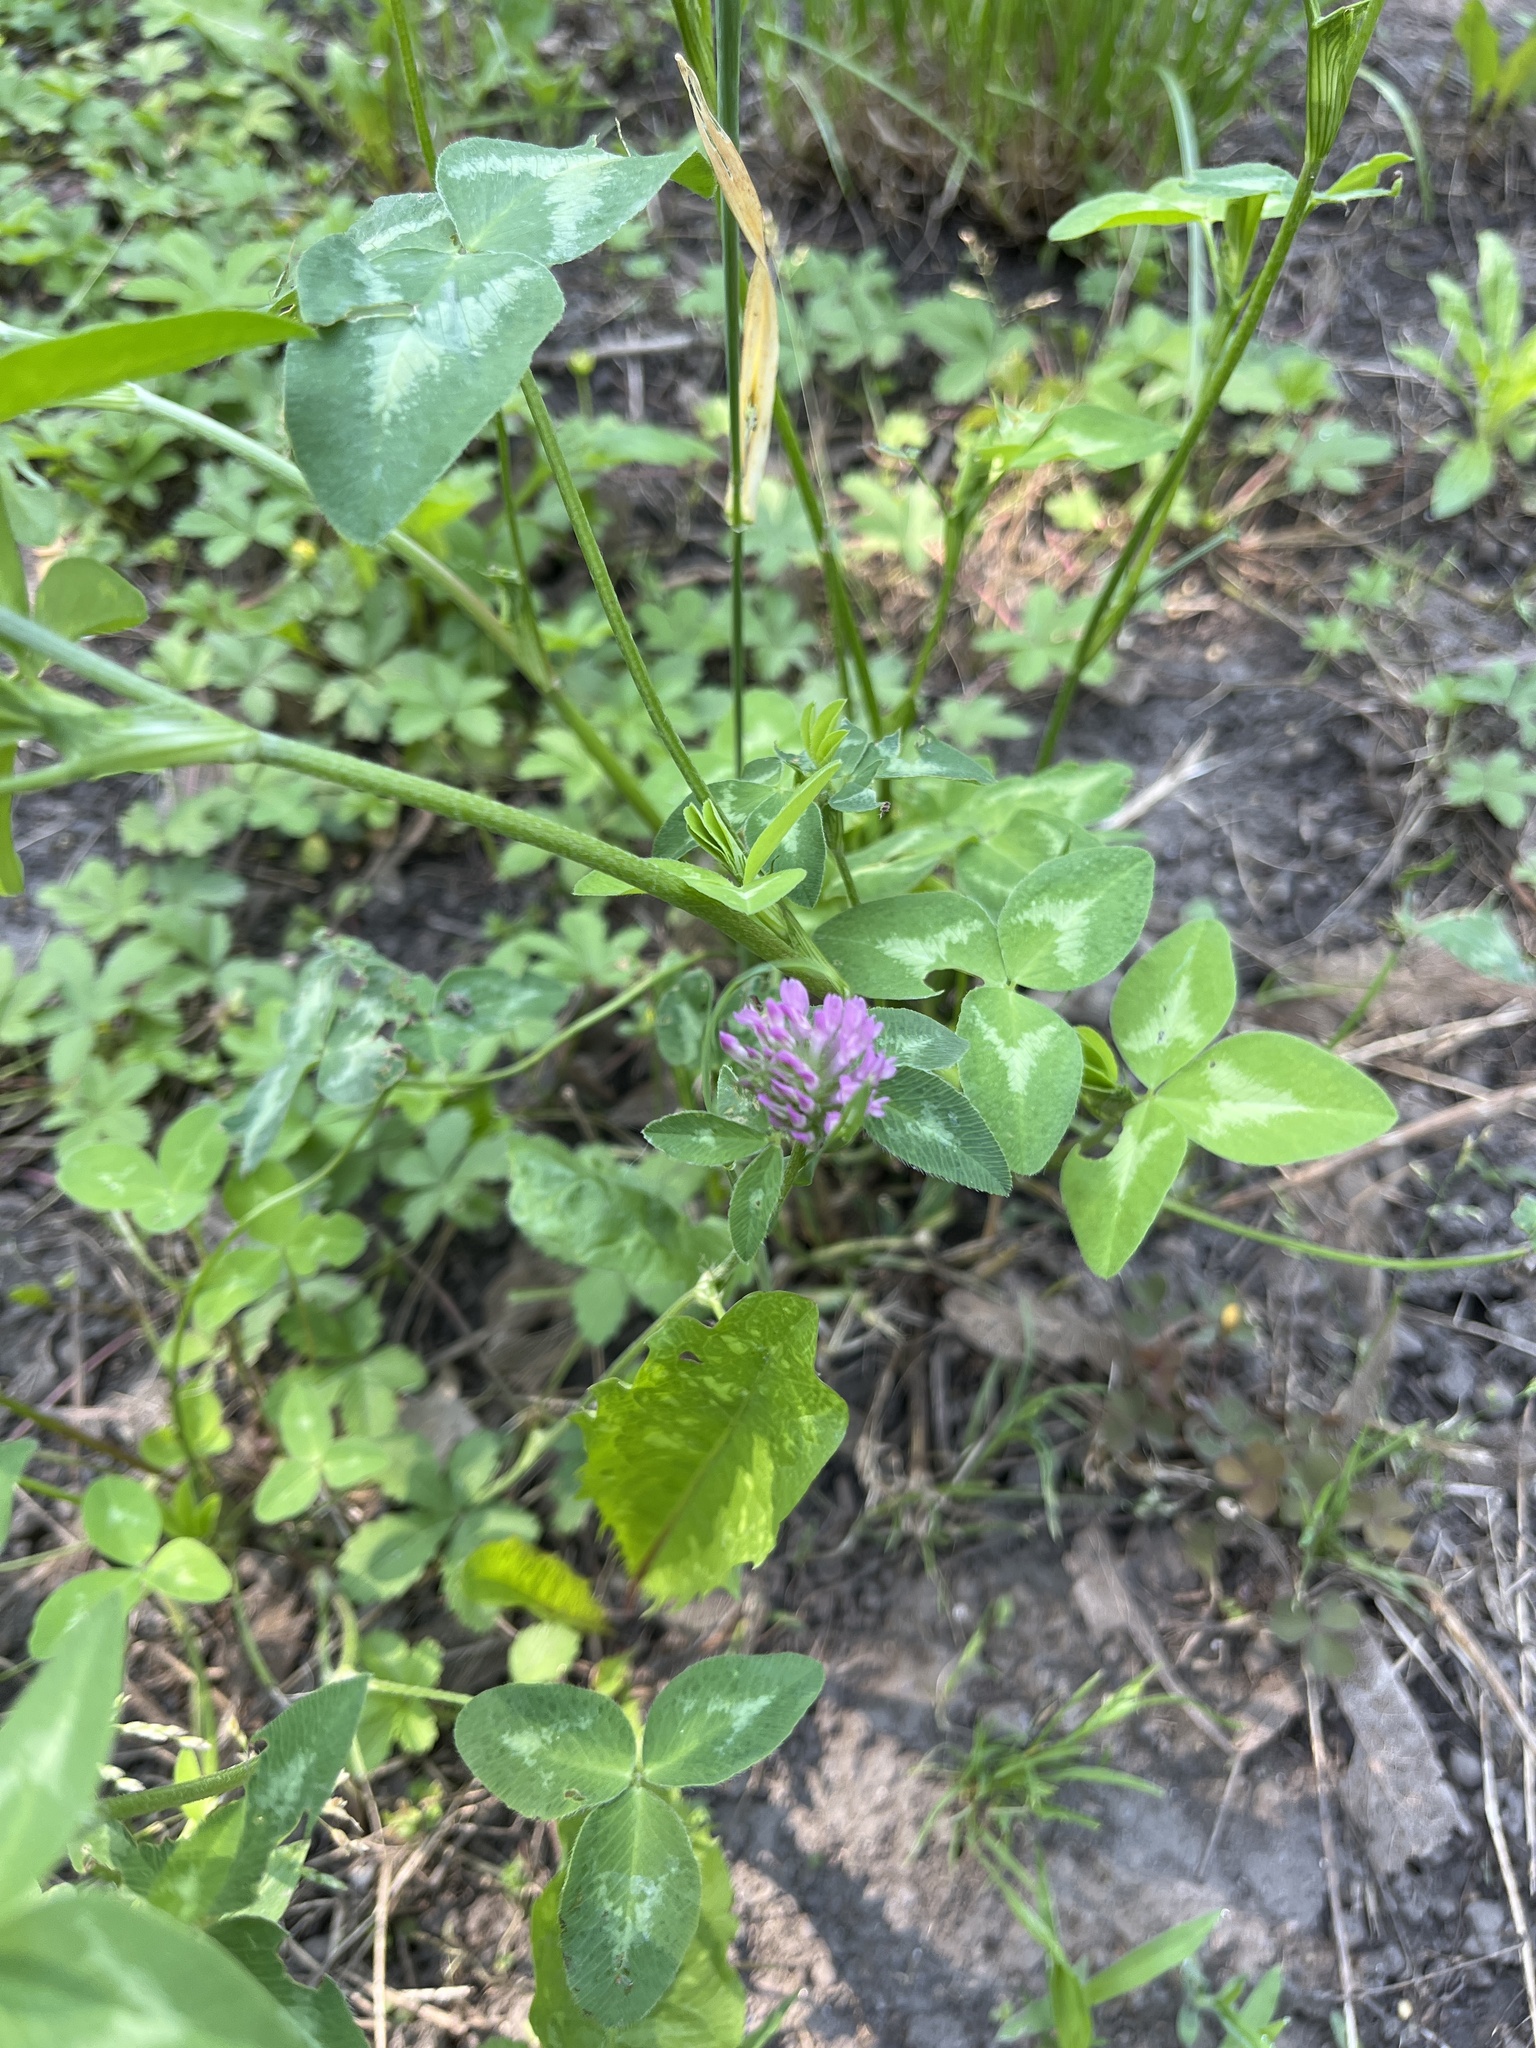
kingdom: Plantae
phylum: Tracheophyta
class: Magnoliopsida
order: Fabales
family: Fabaceae
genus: Trifolium
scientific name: Trifolium pratense
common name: Red clover
